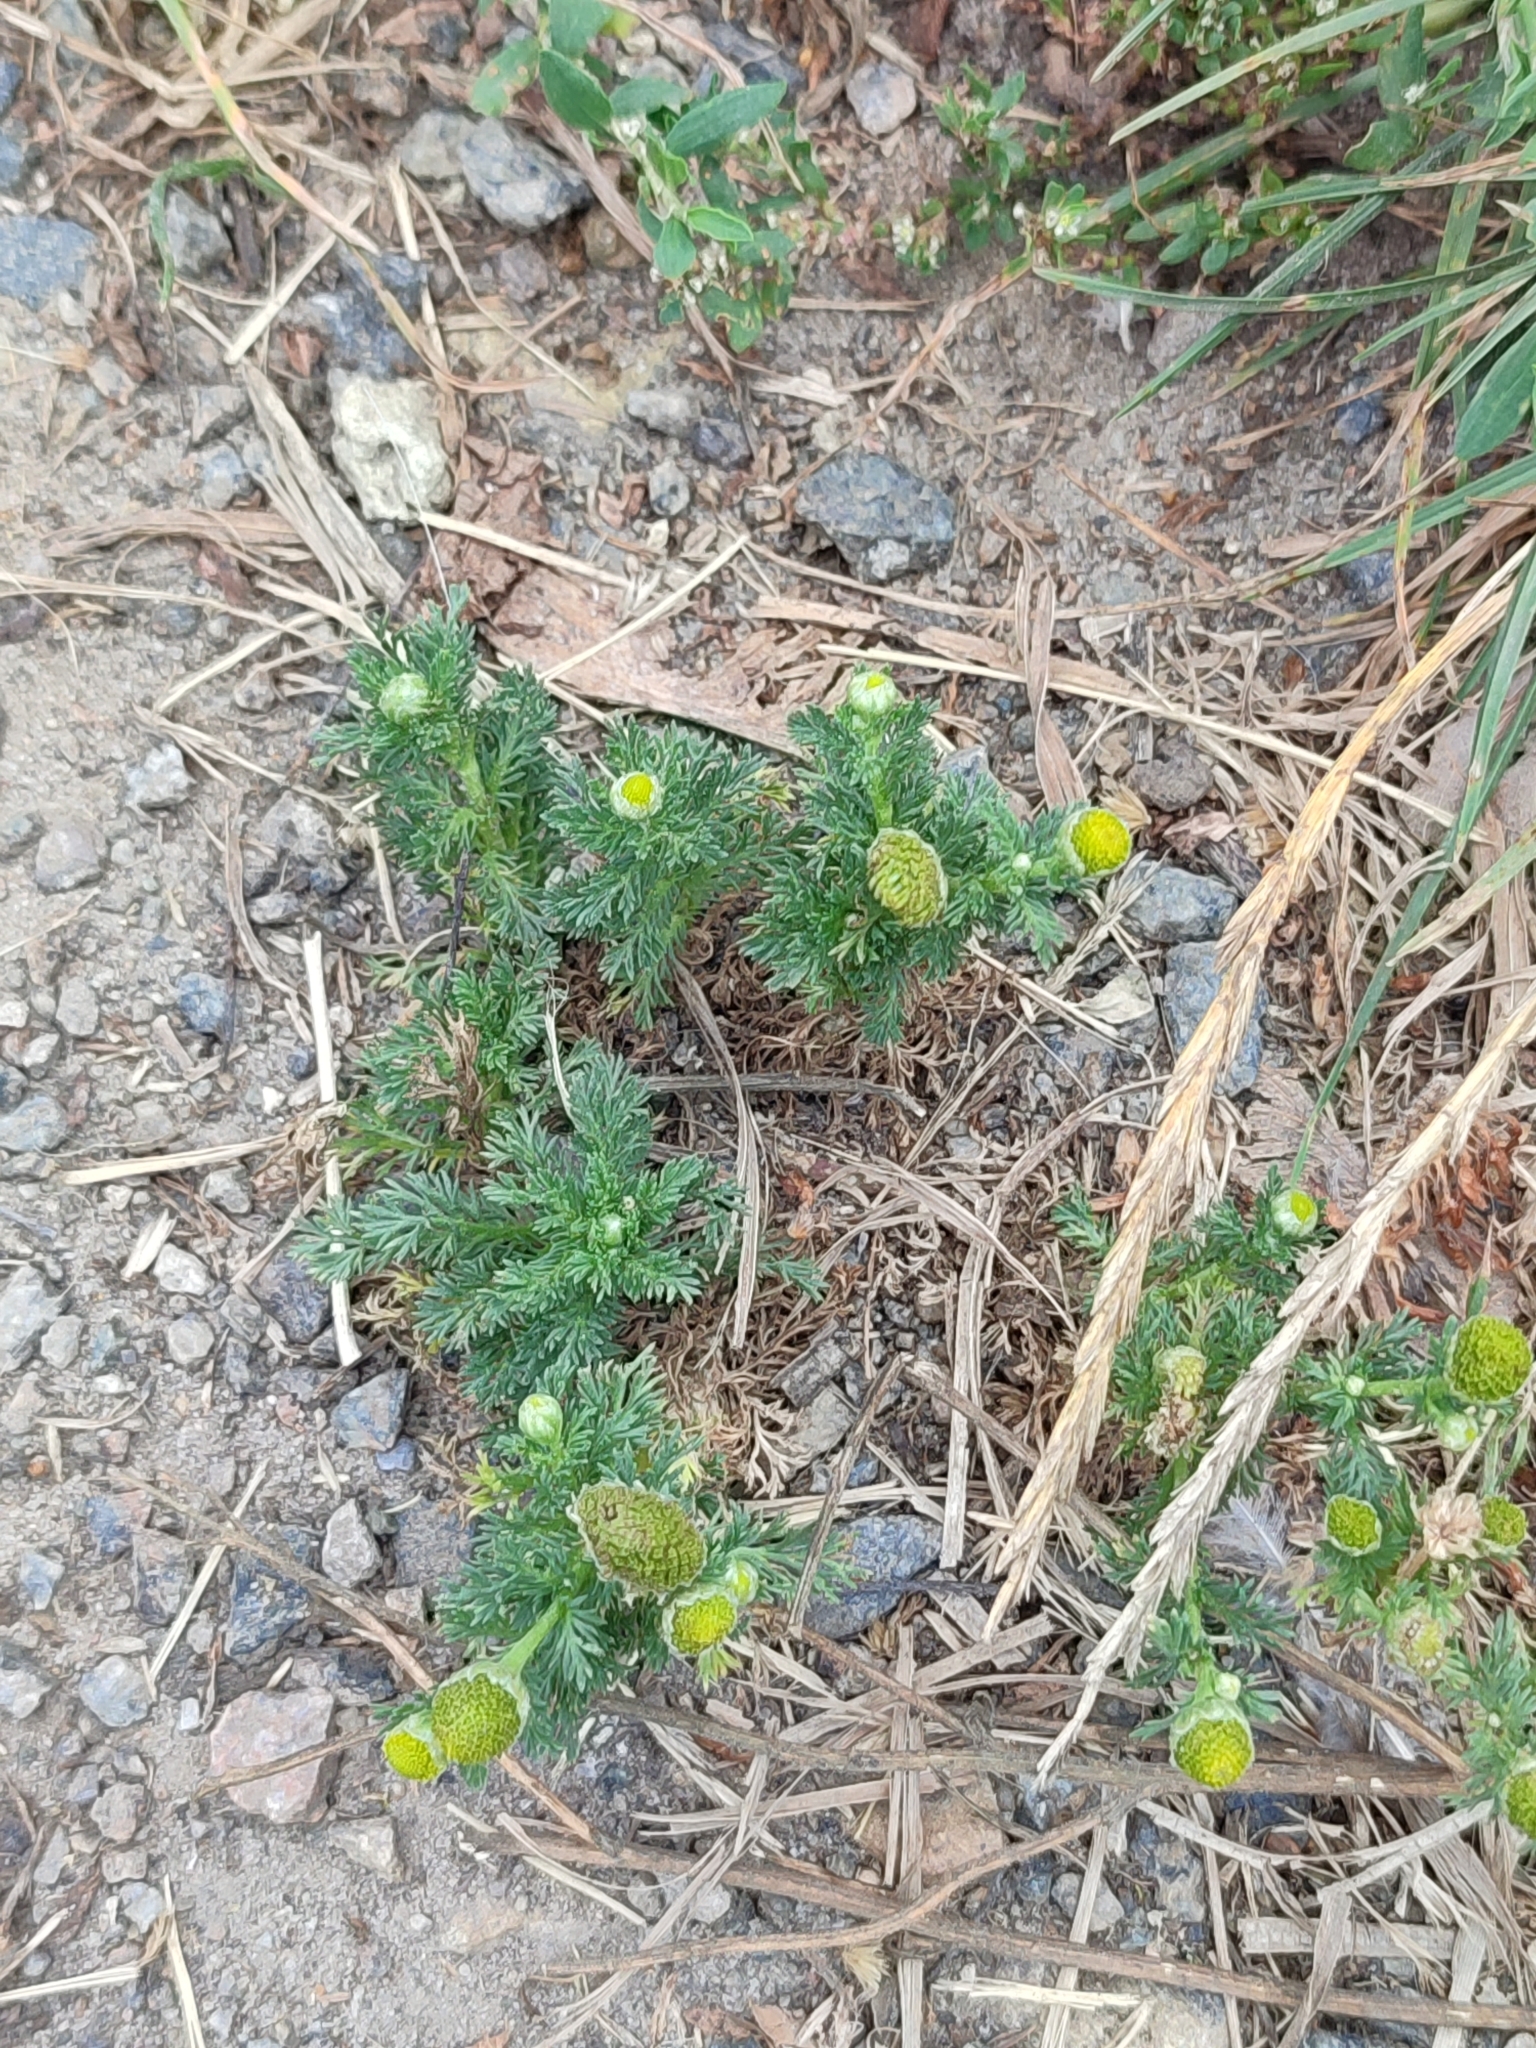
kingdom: Plantae
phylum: Tracheophyta
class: Magnoliopsida
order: Asterales
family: Asteraceae
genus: Matricaria
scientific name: Matricaria discoidea
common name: Disc mayweed
